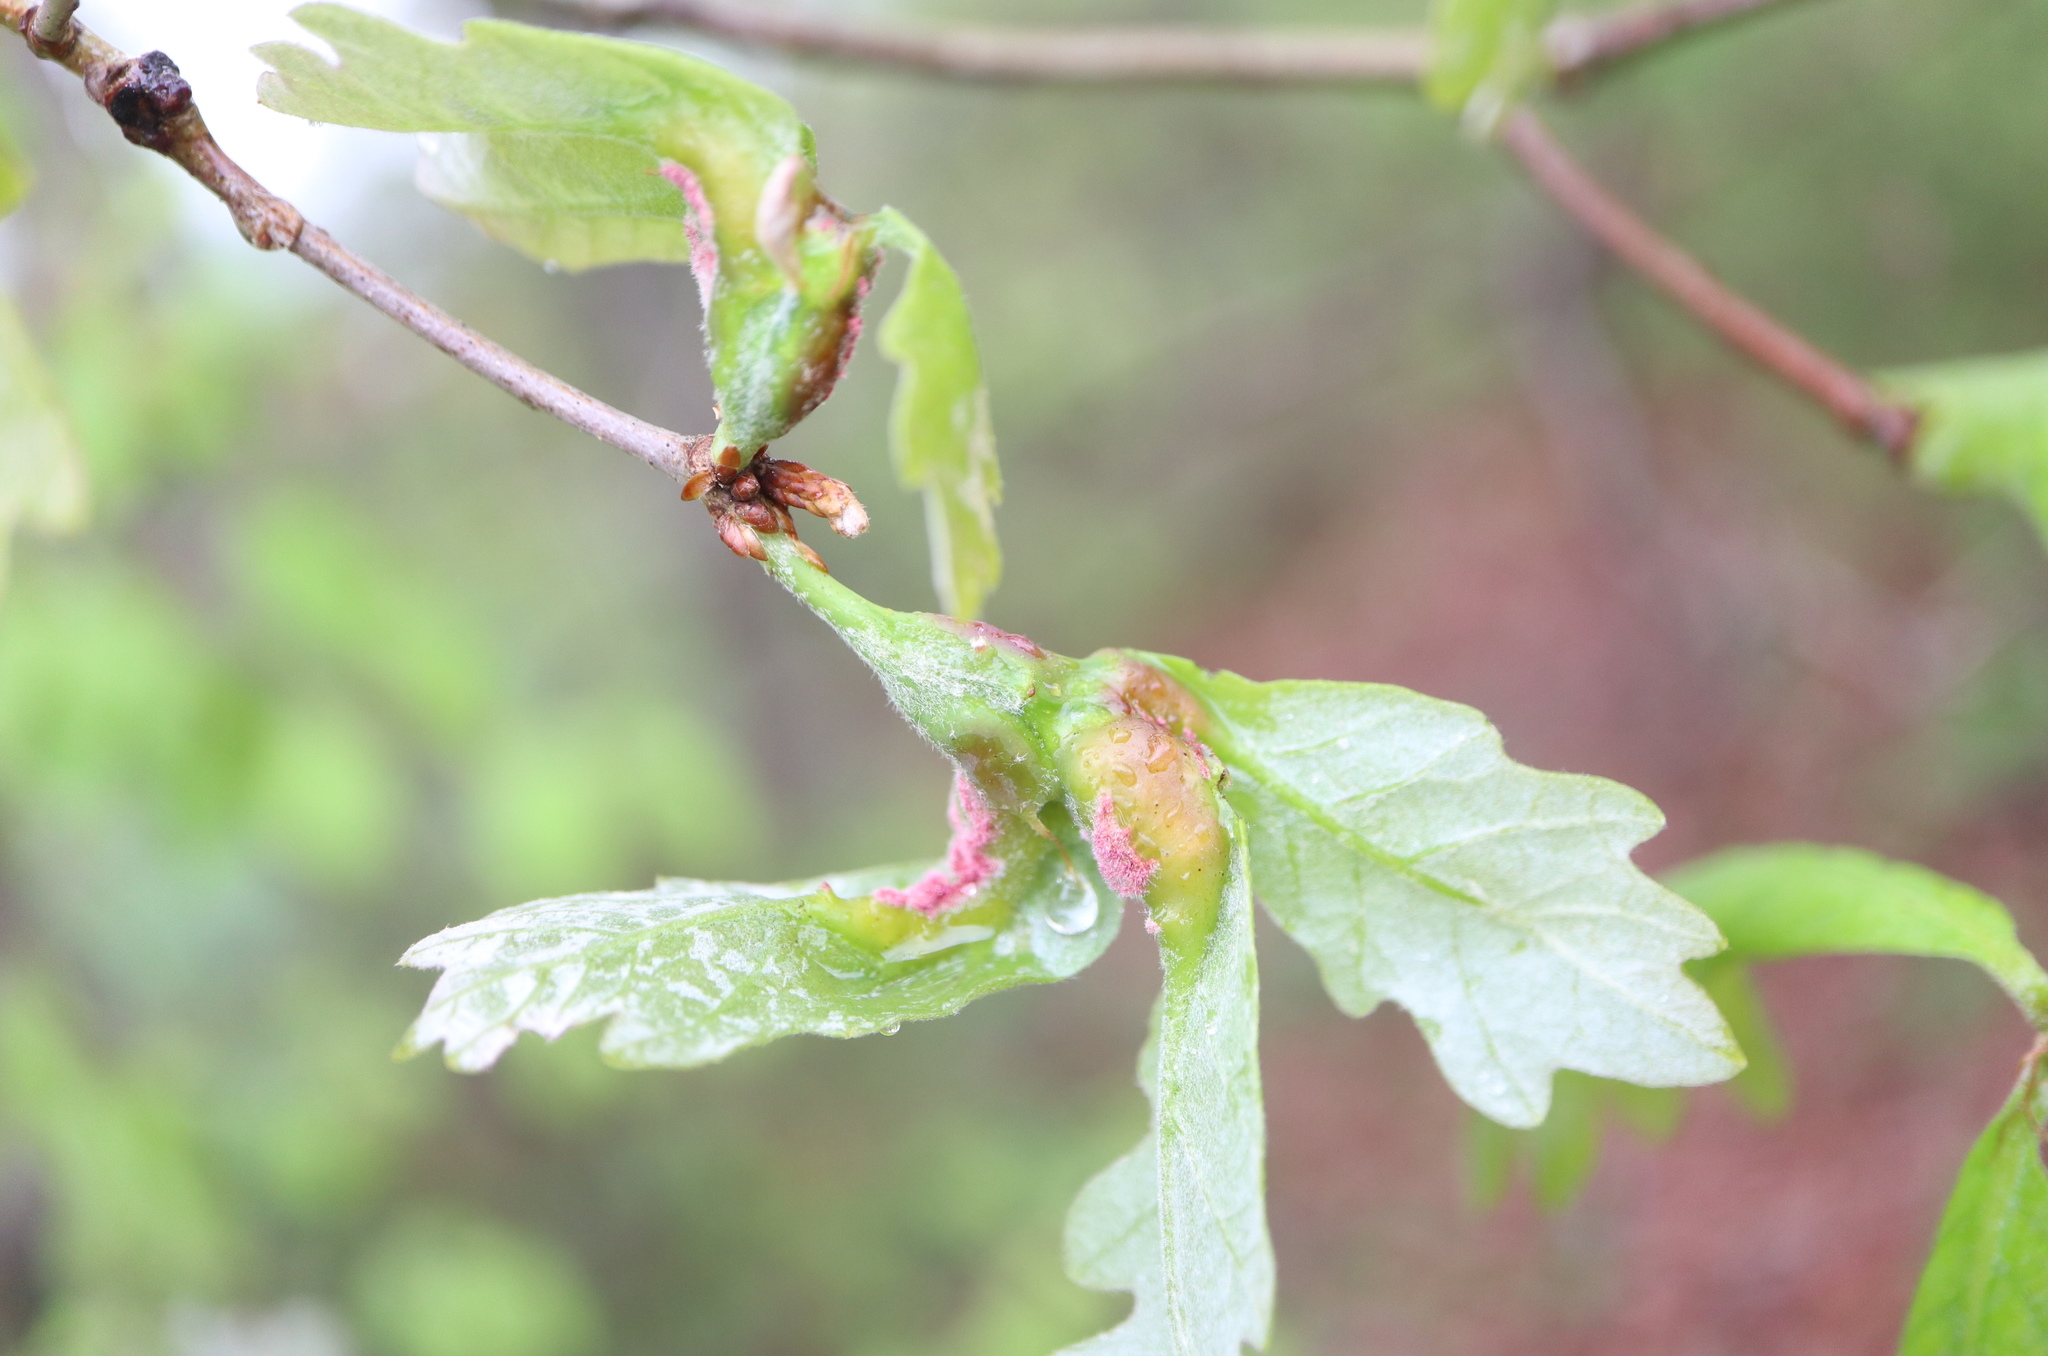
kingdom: Animalia
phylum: Arthropoda
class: Insecta
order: Hymenoptera
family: Cynipidae
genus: Neuroterus
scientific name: Neuroterus quercusbaccarum
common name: Common spangle gall
